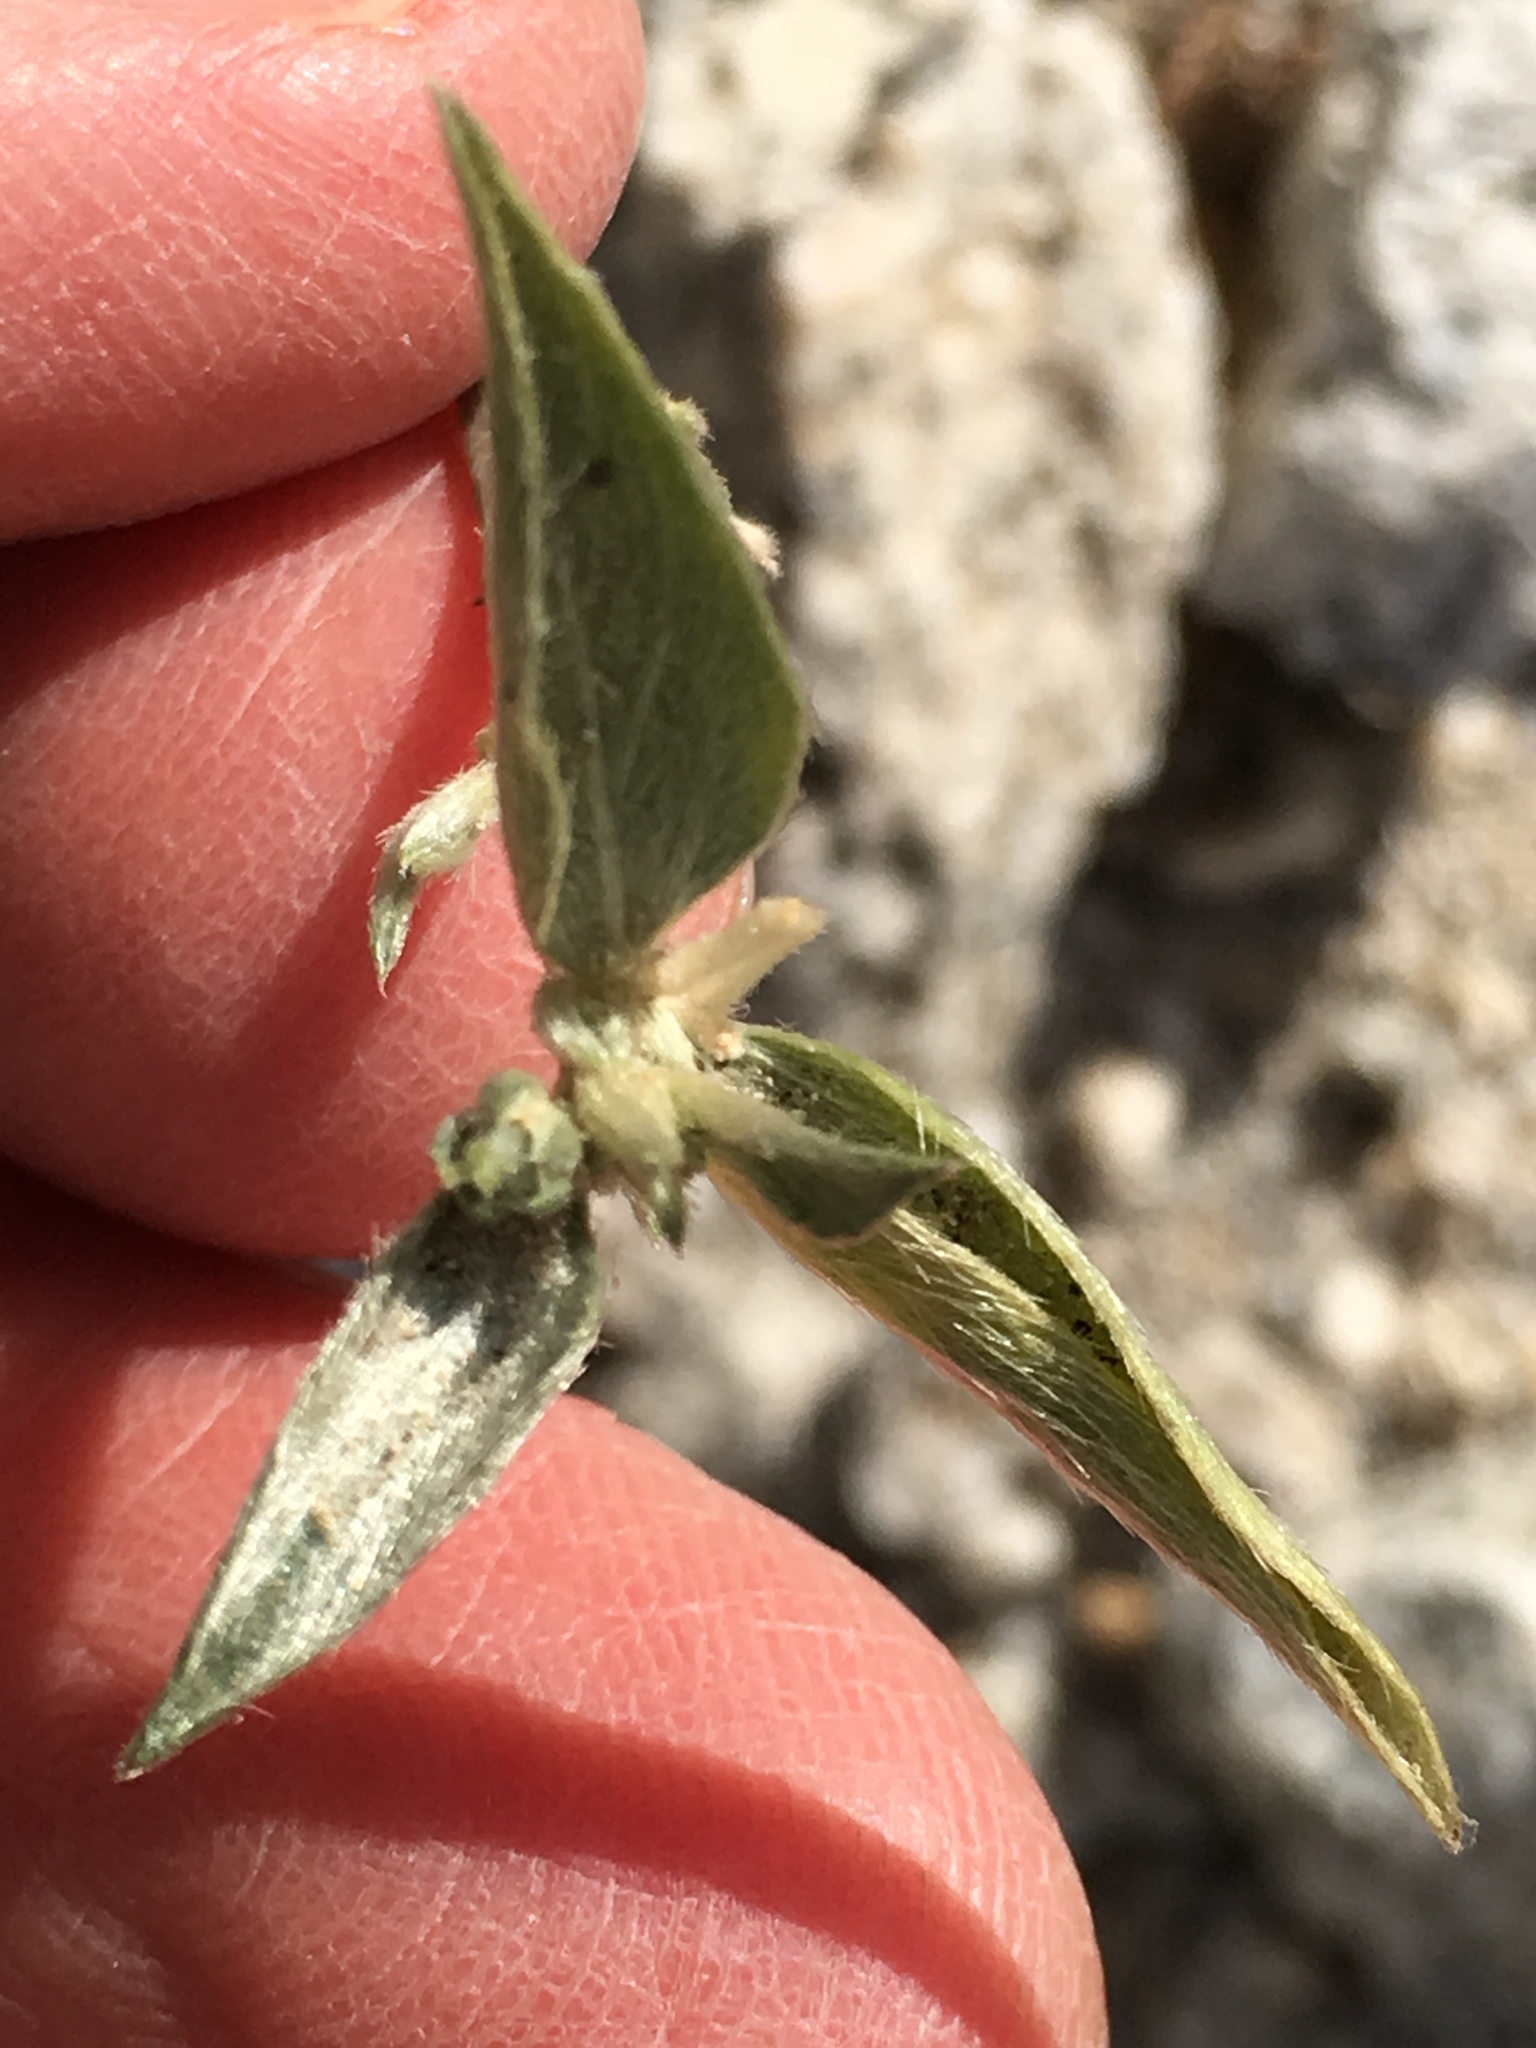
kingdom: Plantae
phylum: Tracheophyta
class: Magnoliopsida
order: Malpighiales
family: Euphorbiaceae
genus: Ditaxis
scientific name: Ditaxis lanceolata
